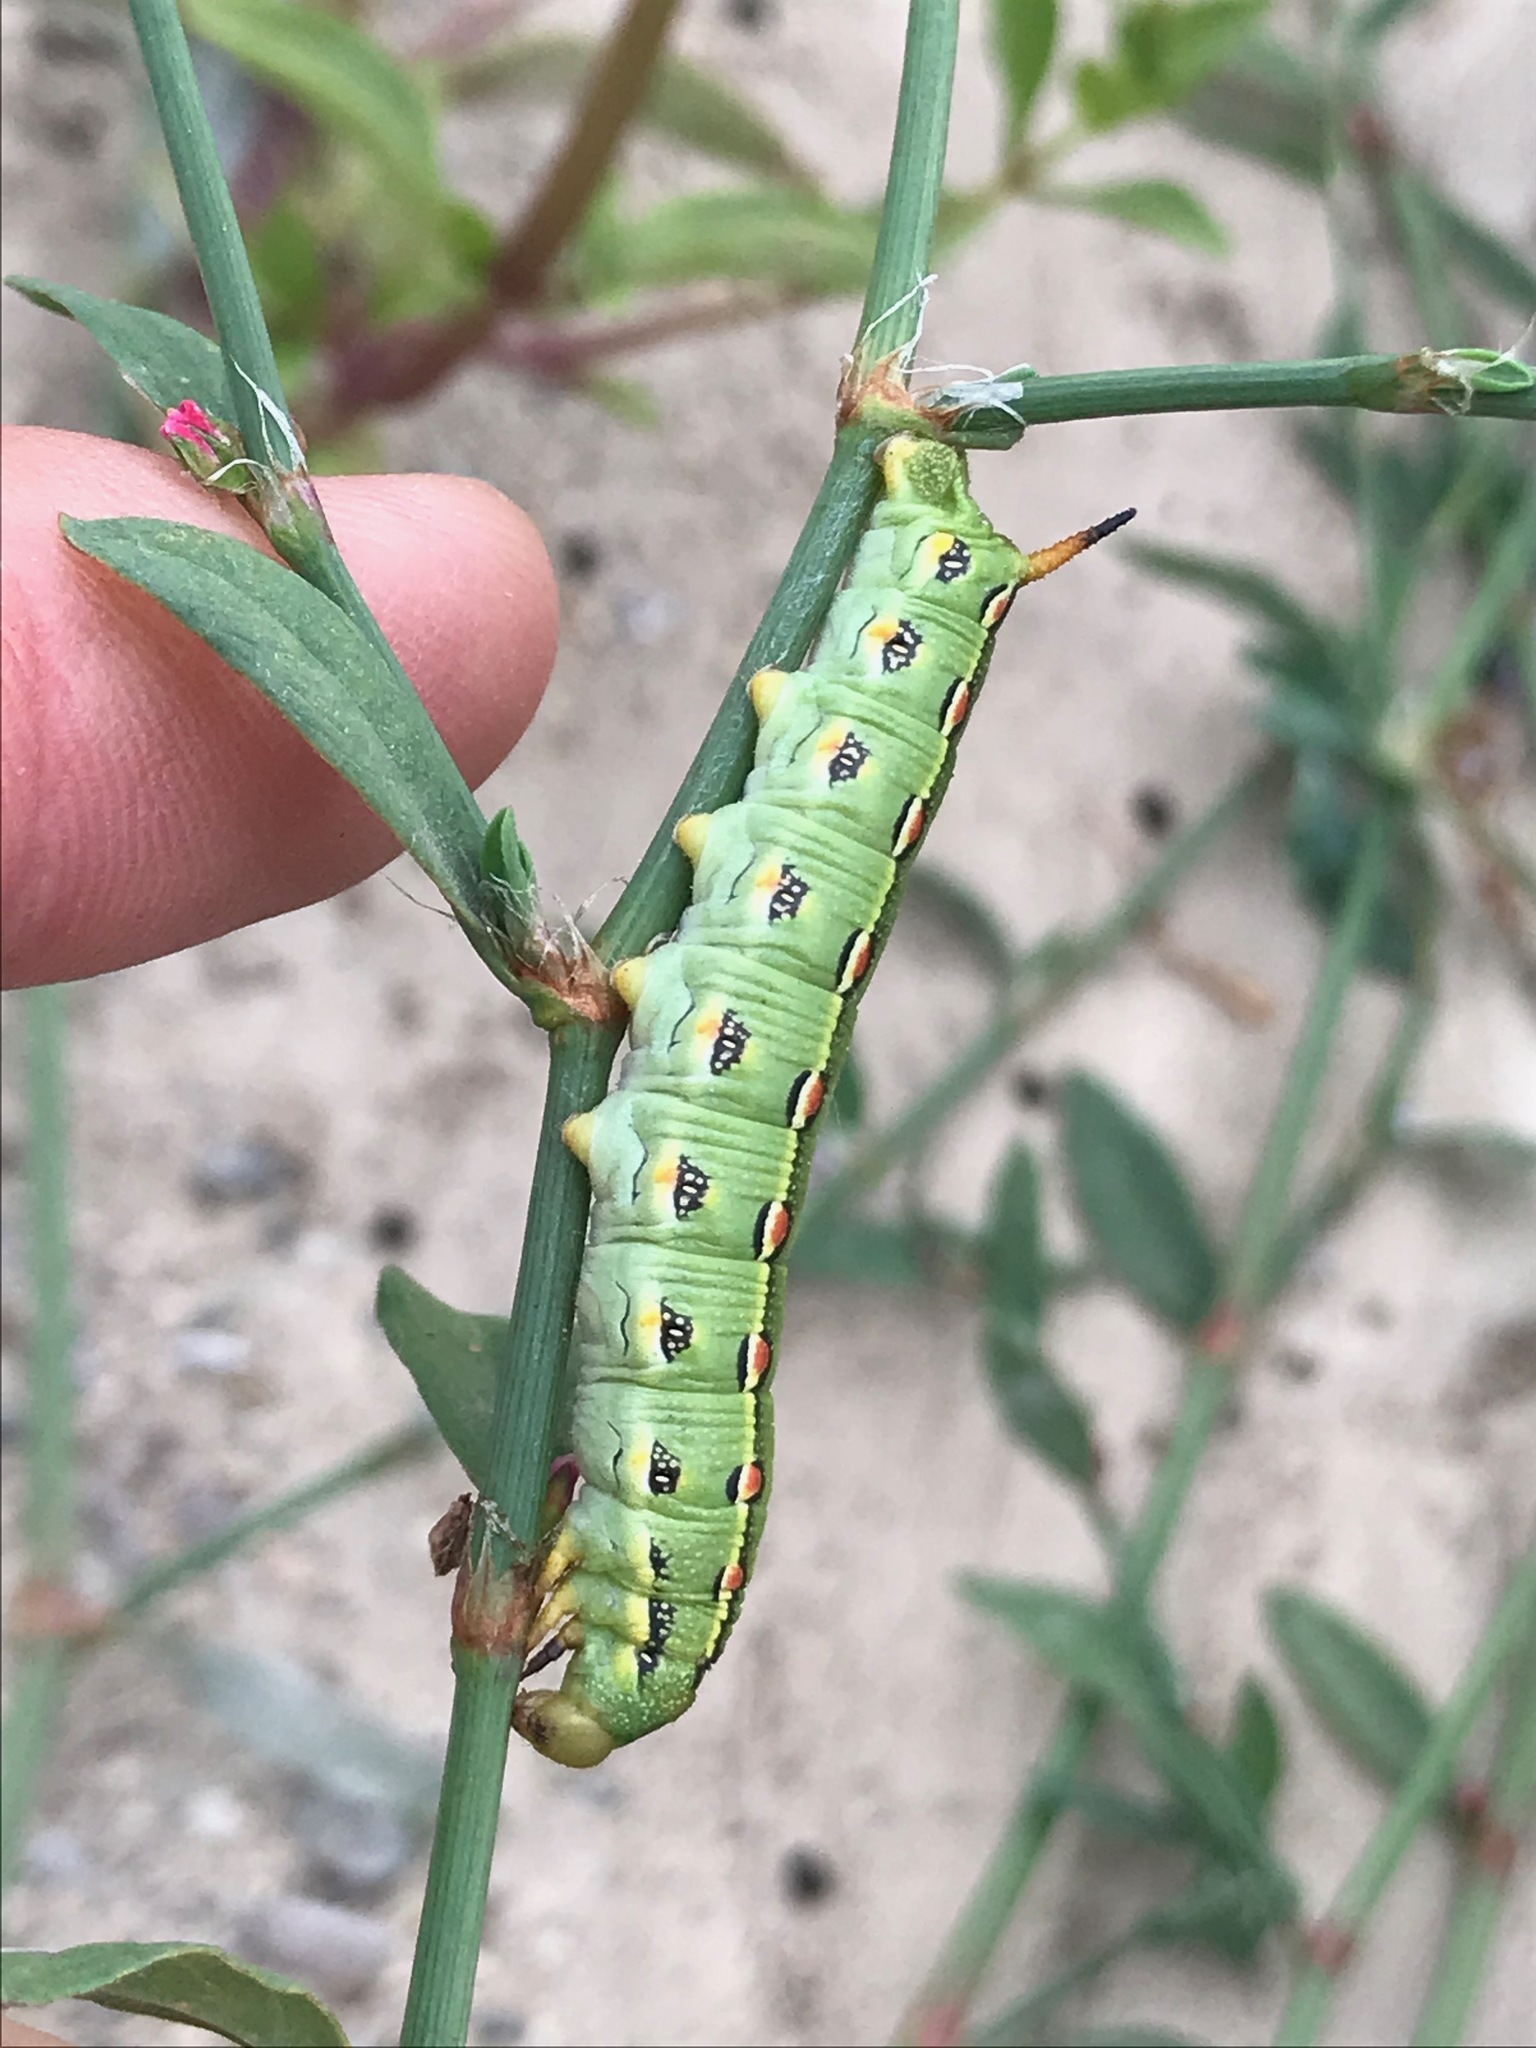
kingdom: Animalia
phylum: Arthropoda
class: Insecta
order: Lepidoptera
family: Sphingidae
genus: Hyles
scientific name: Hyles lineata
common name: White-lined sphinx
